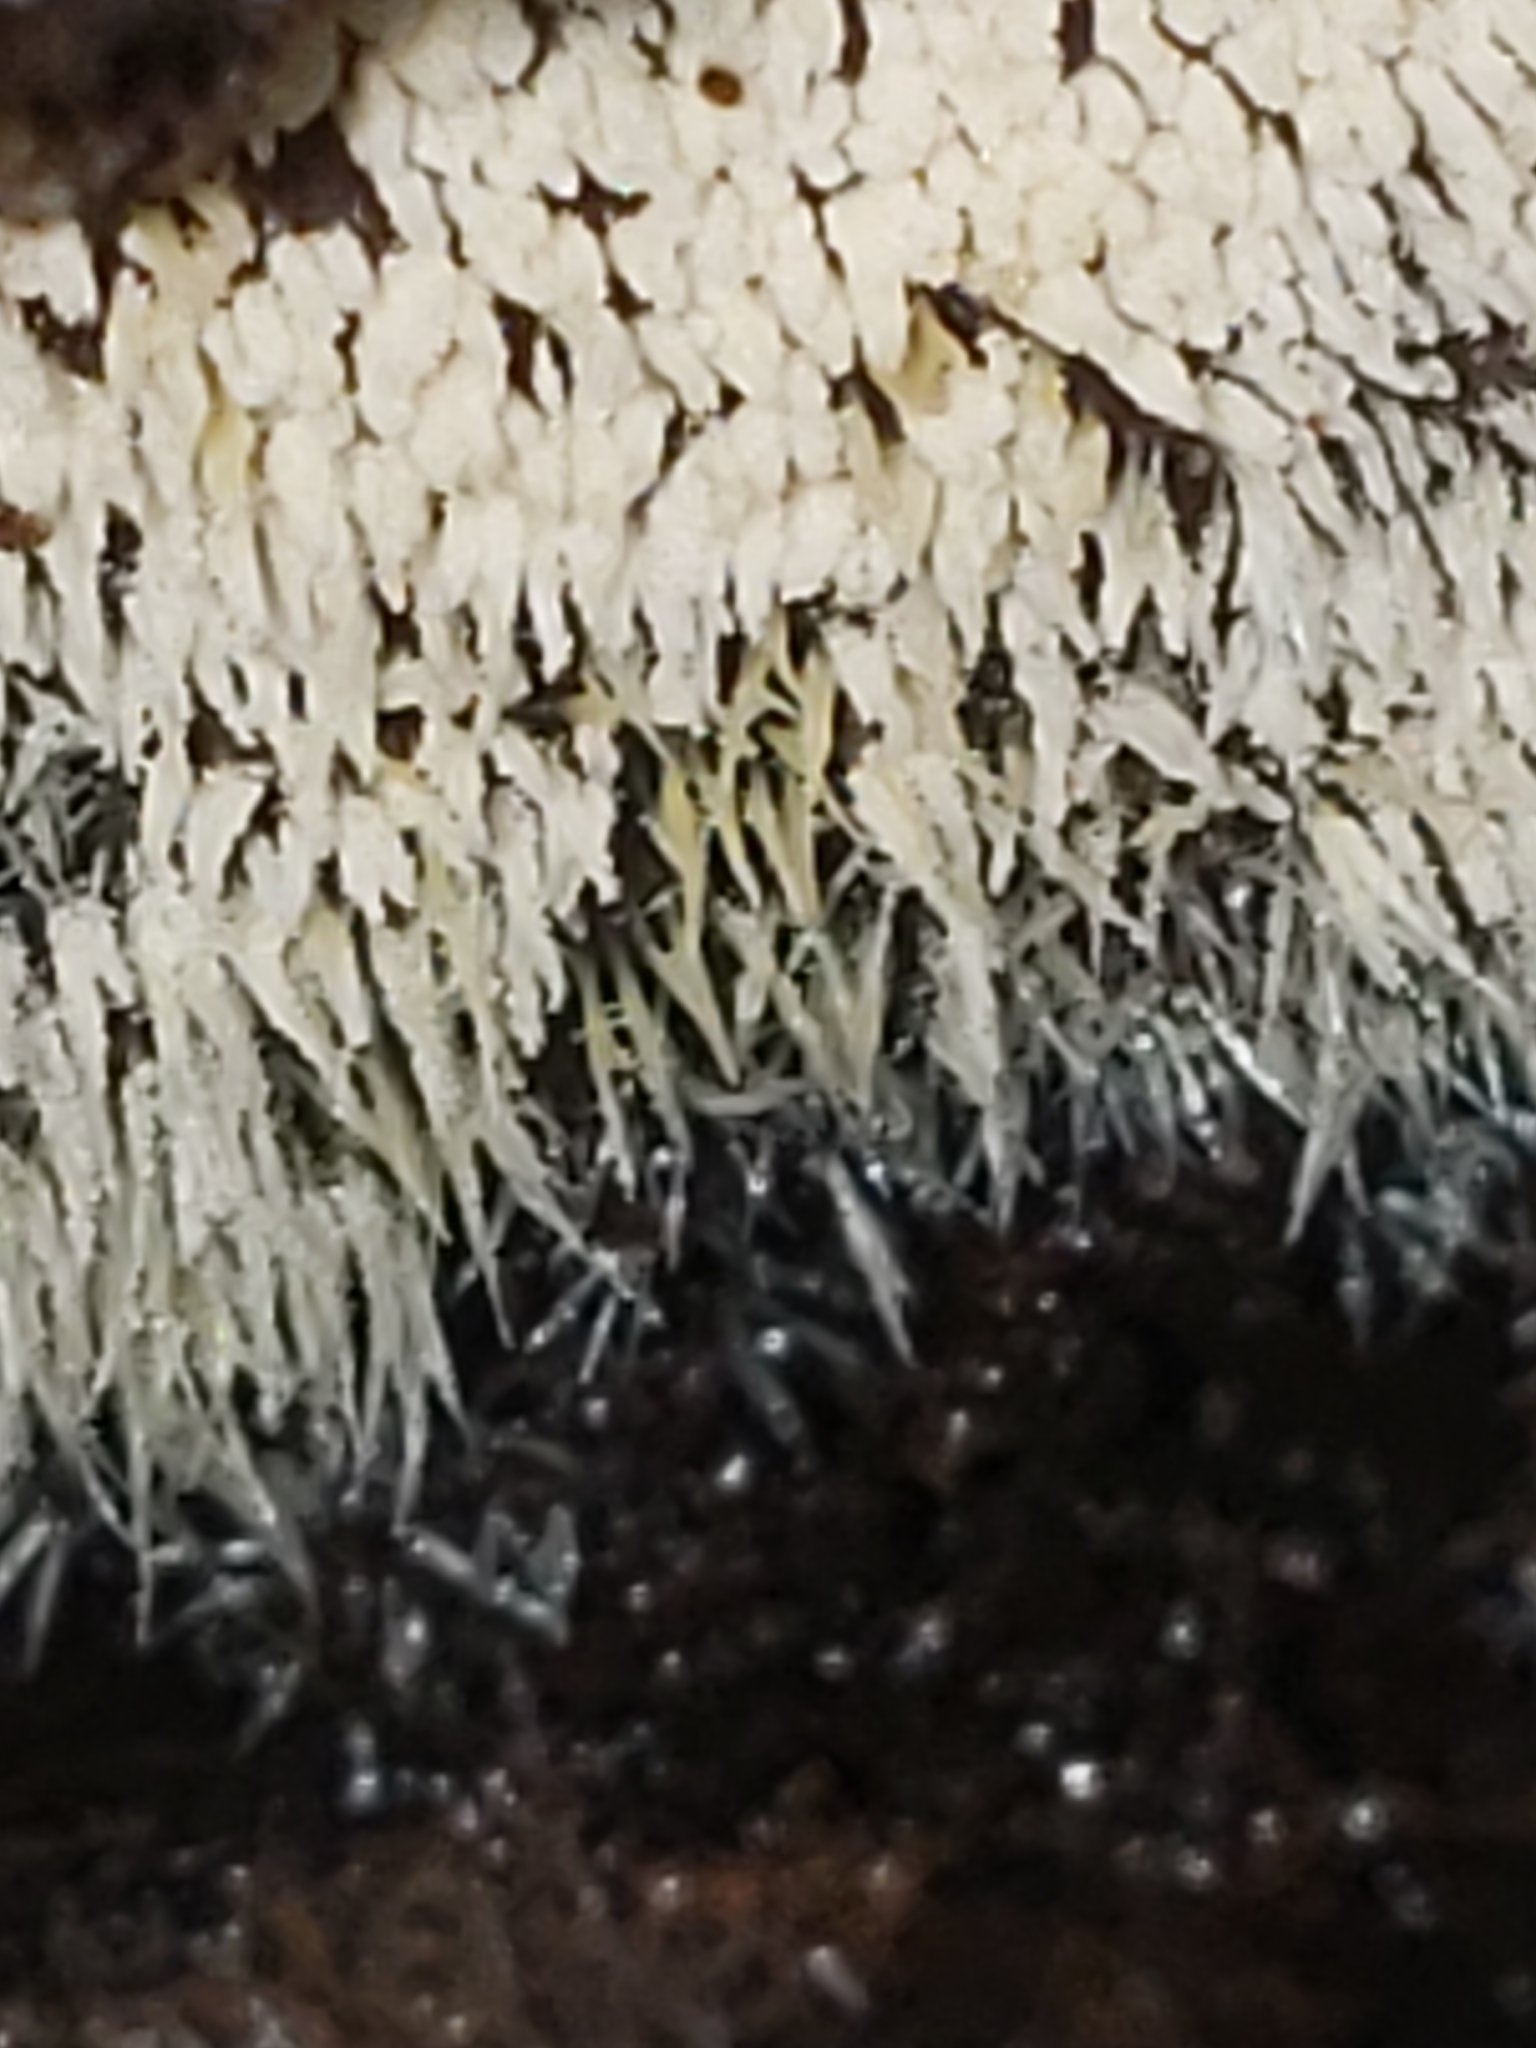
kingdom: Fungi
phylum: Ascomycota
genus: Arthrosporium
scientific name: Arthrosporium candidum
